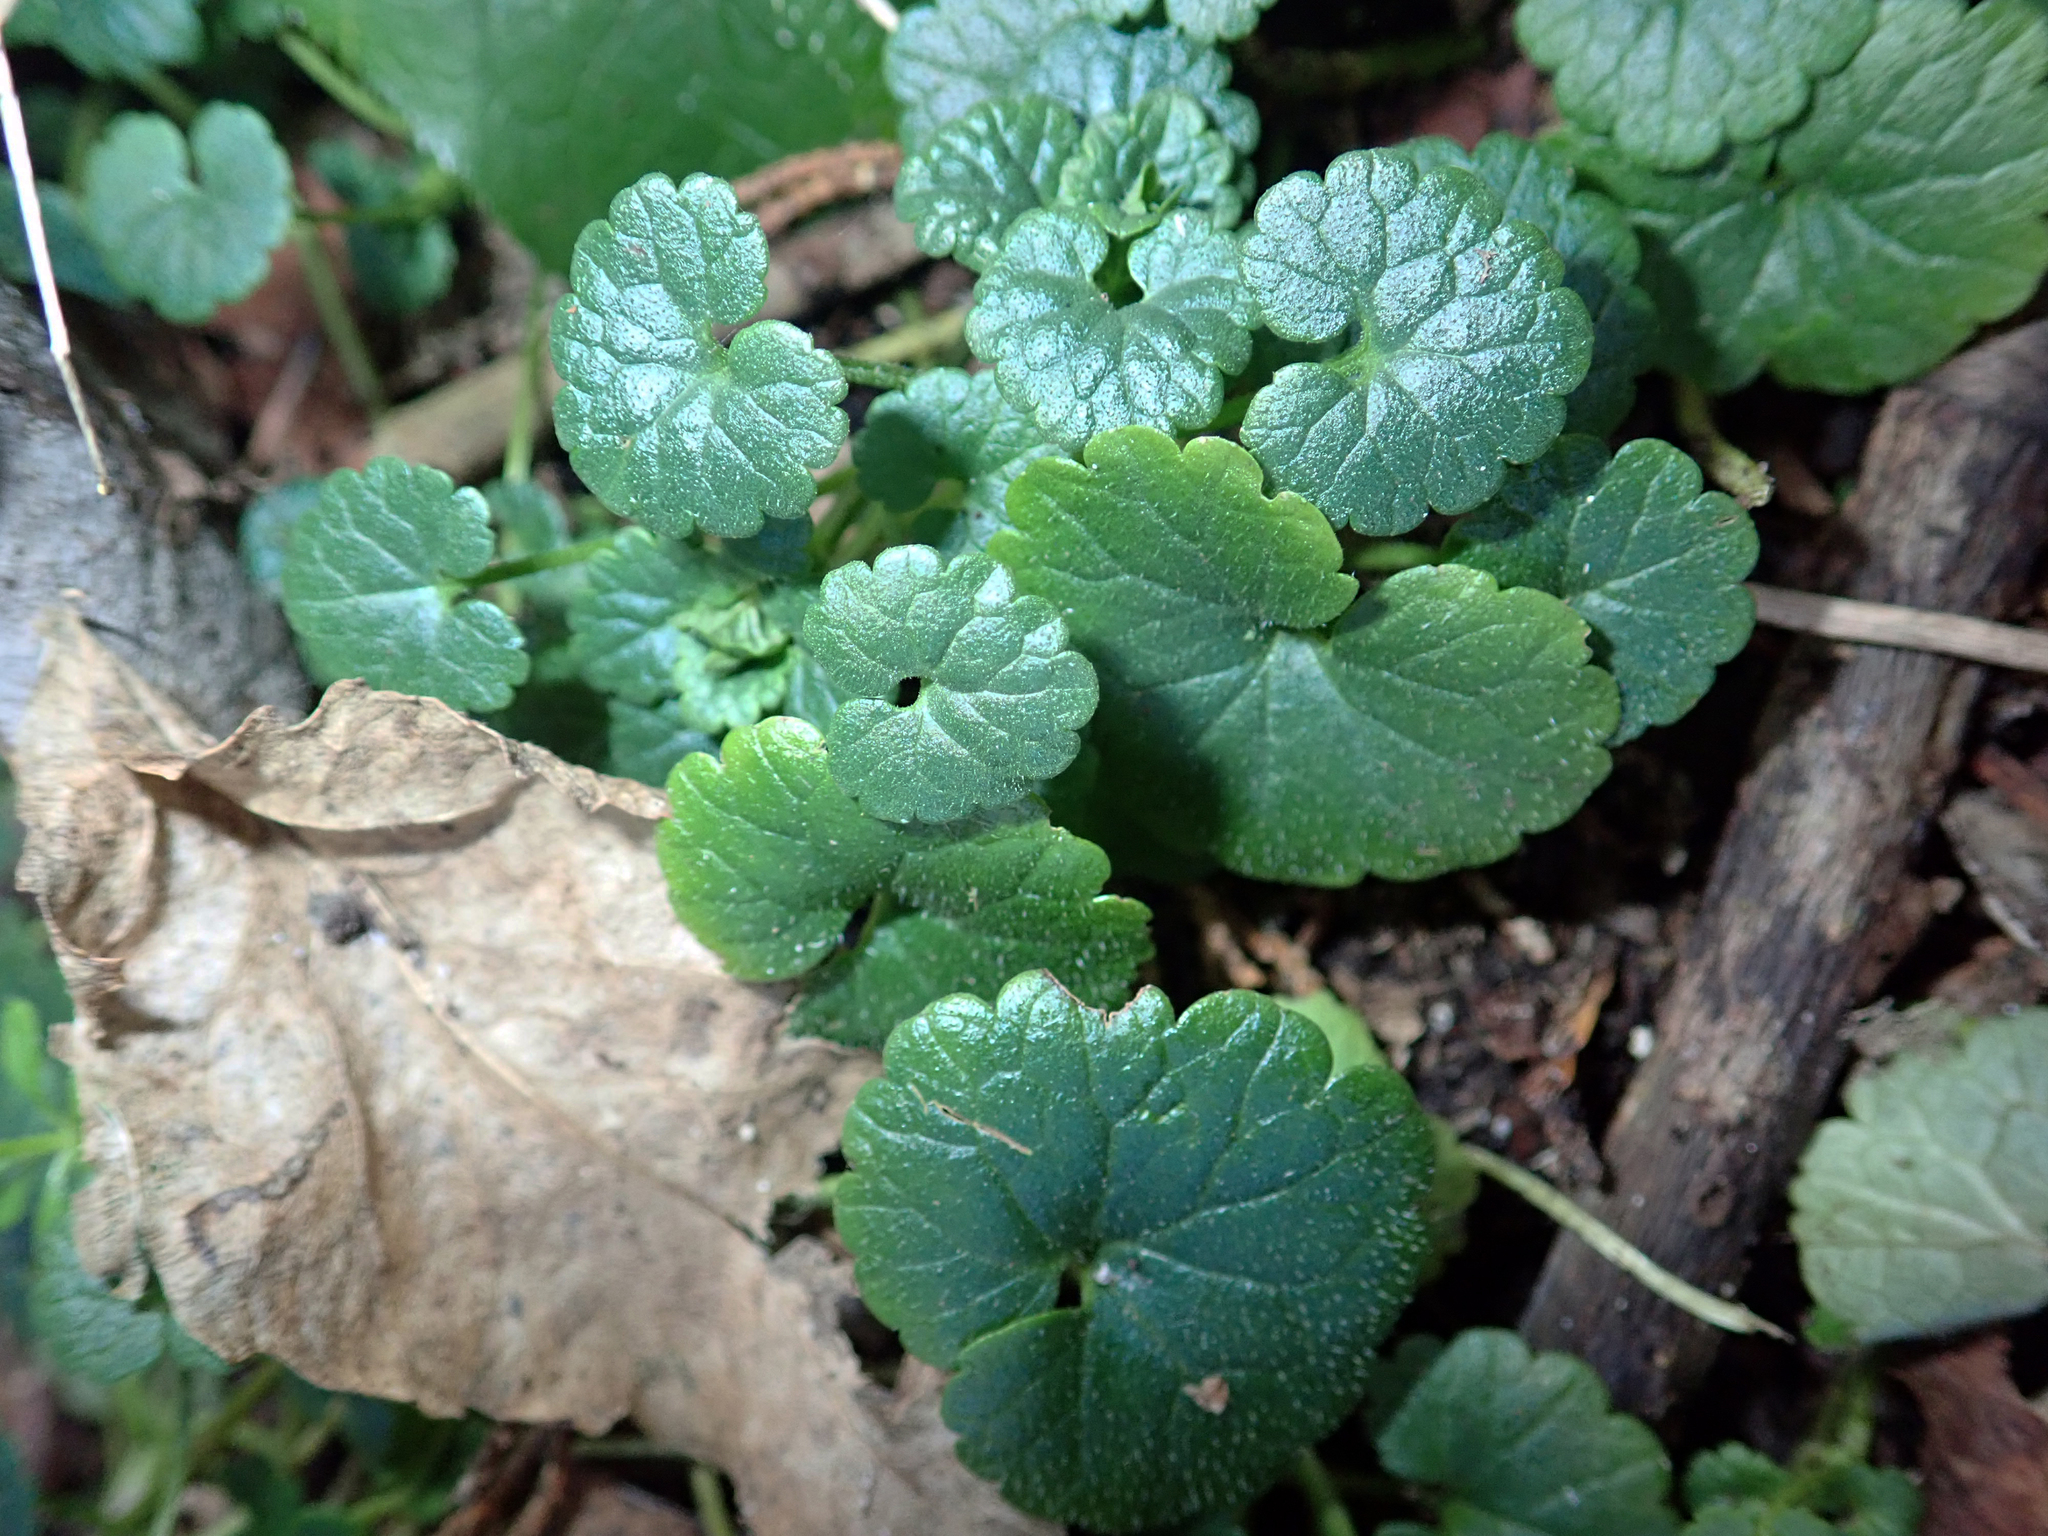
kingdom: Plantae
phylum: Tracheophyta
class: Magnoliopsida
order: Lamiales
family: Lamiaceae
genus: Glechoma
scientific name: Glechoma hederacea
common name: Ground ivy
